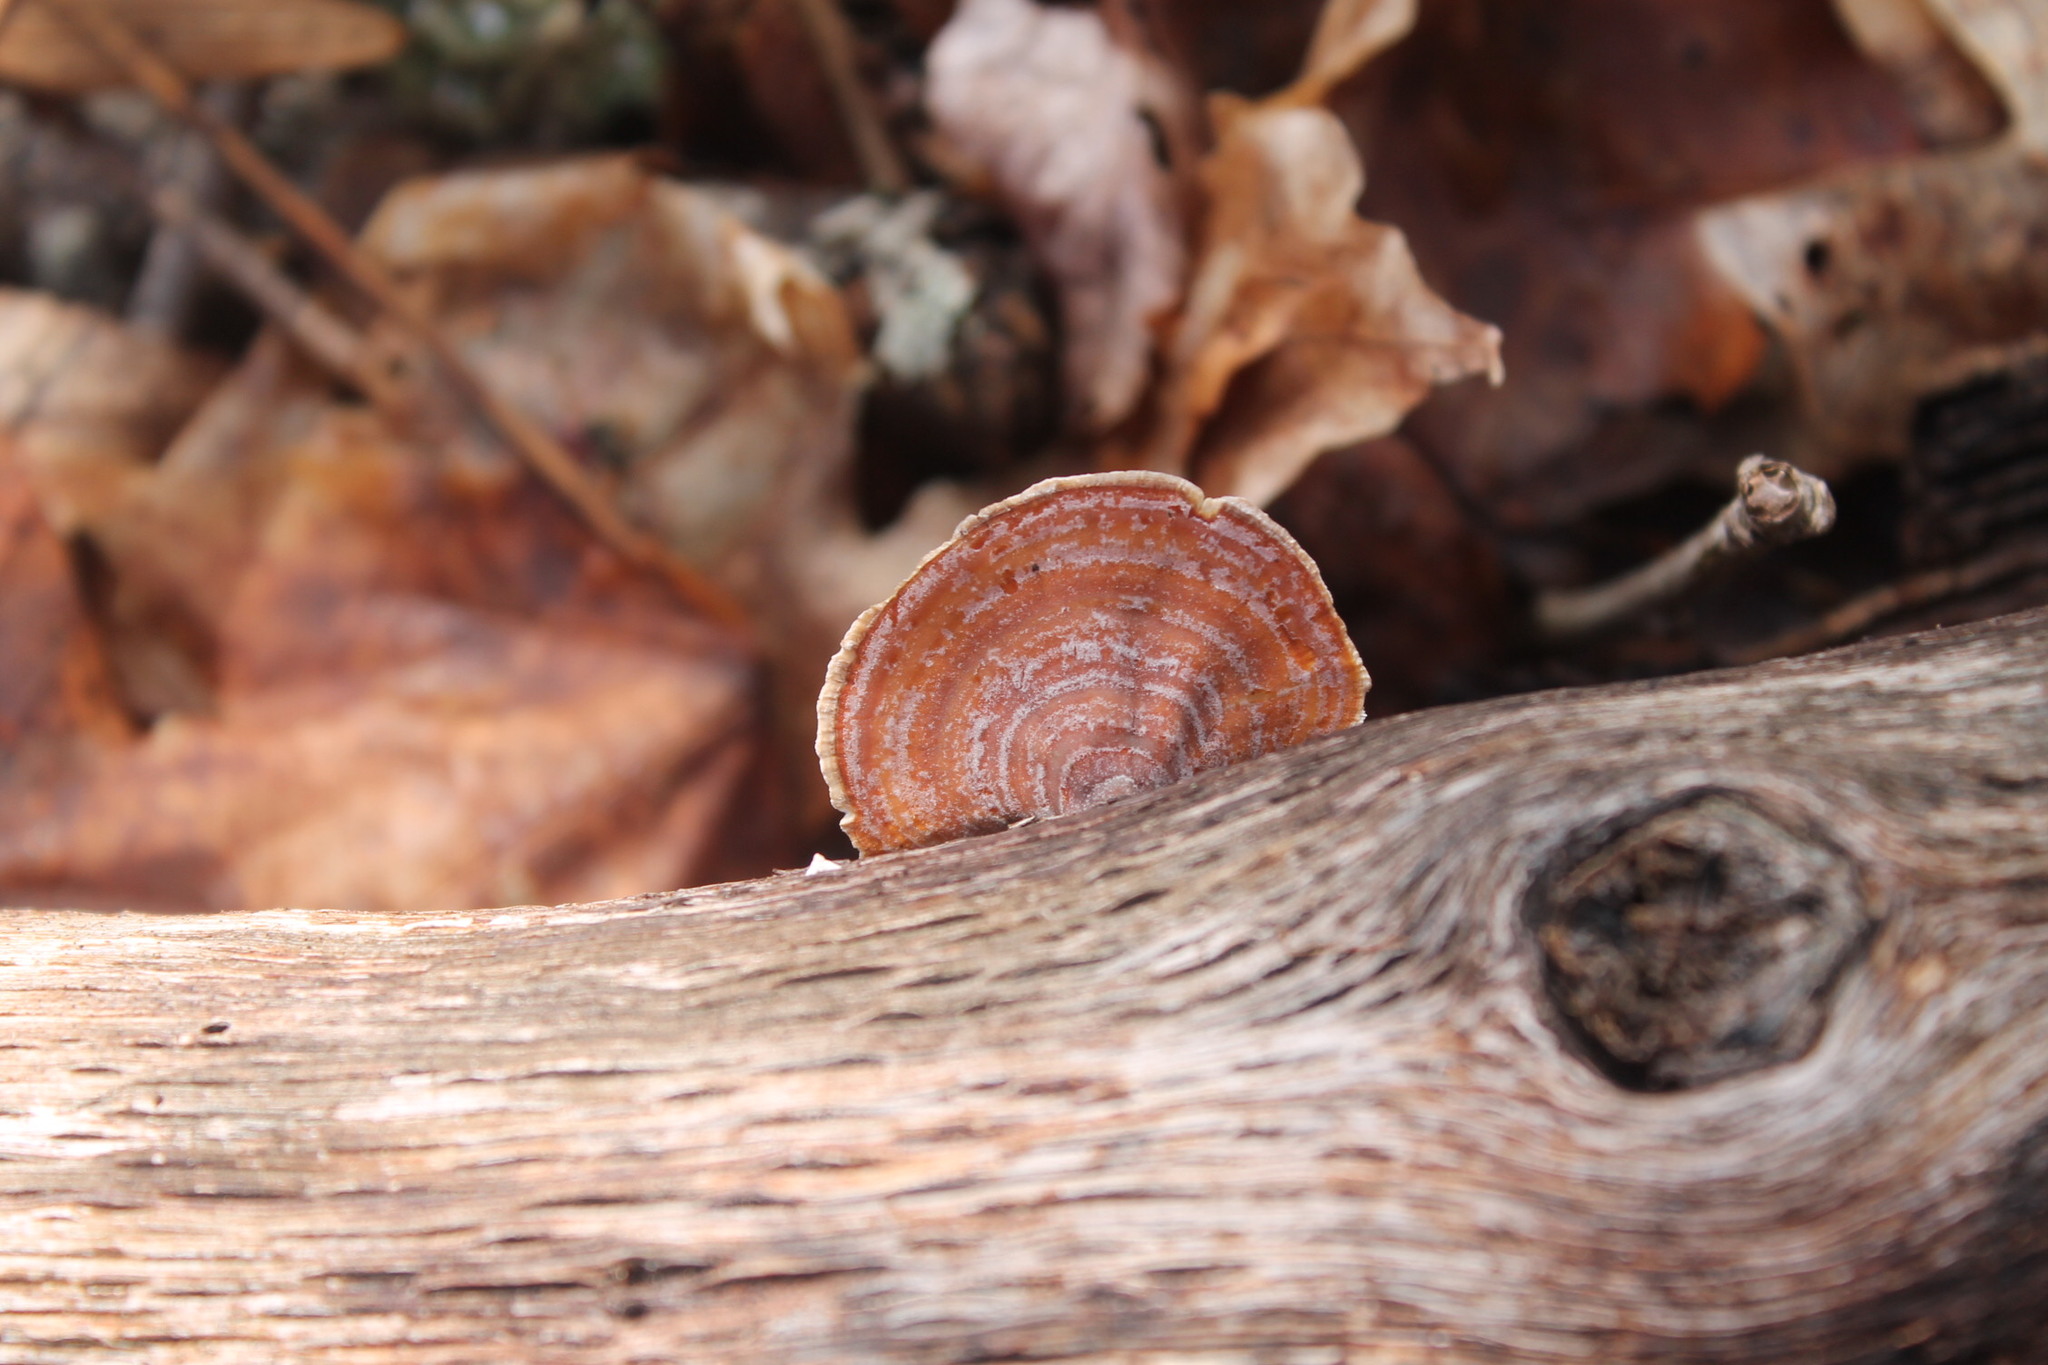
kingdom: Fungi
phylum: Basidiomycota
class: Agaricomycetes
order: Russulales
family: Stereaceae
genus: Stereum
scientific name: Stereum lobatum
